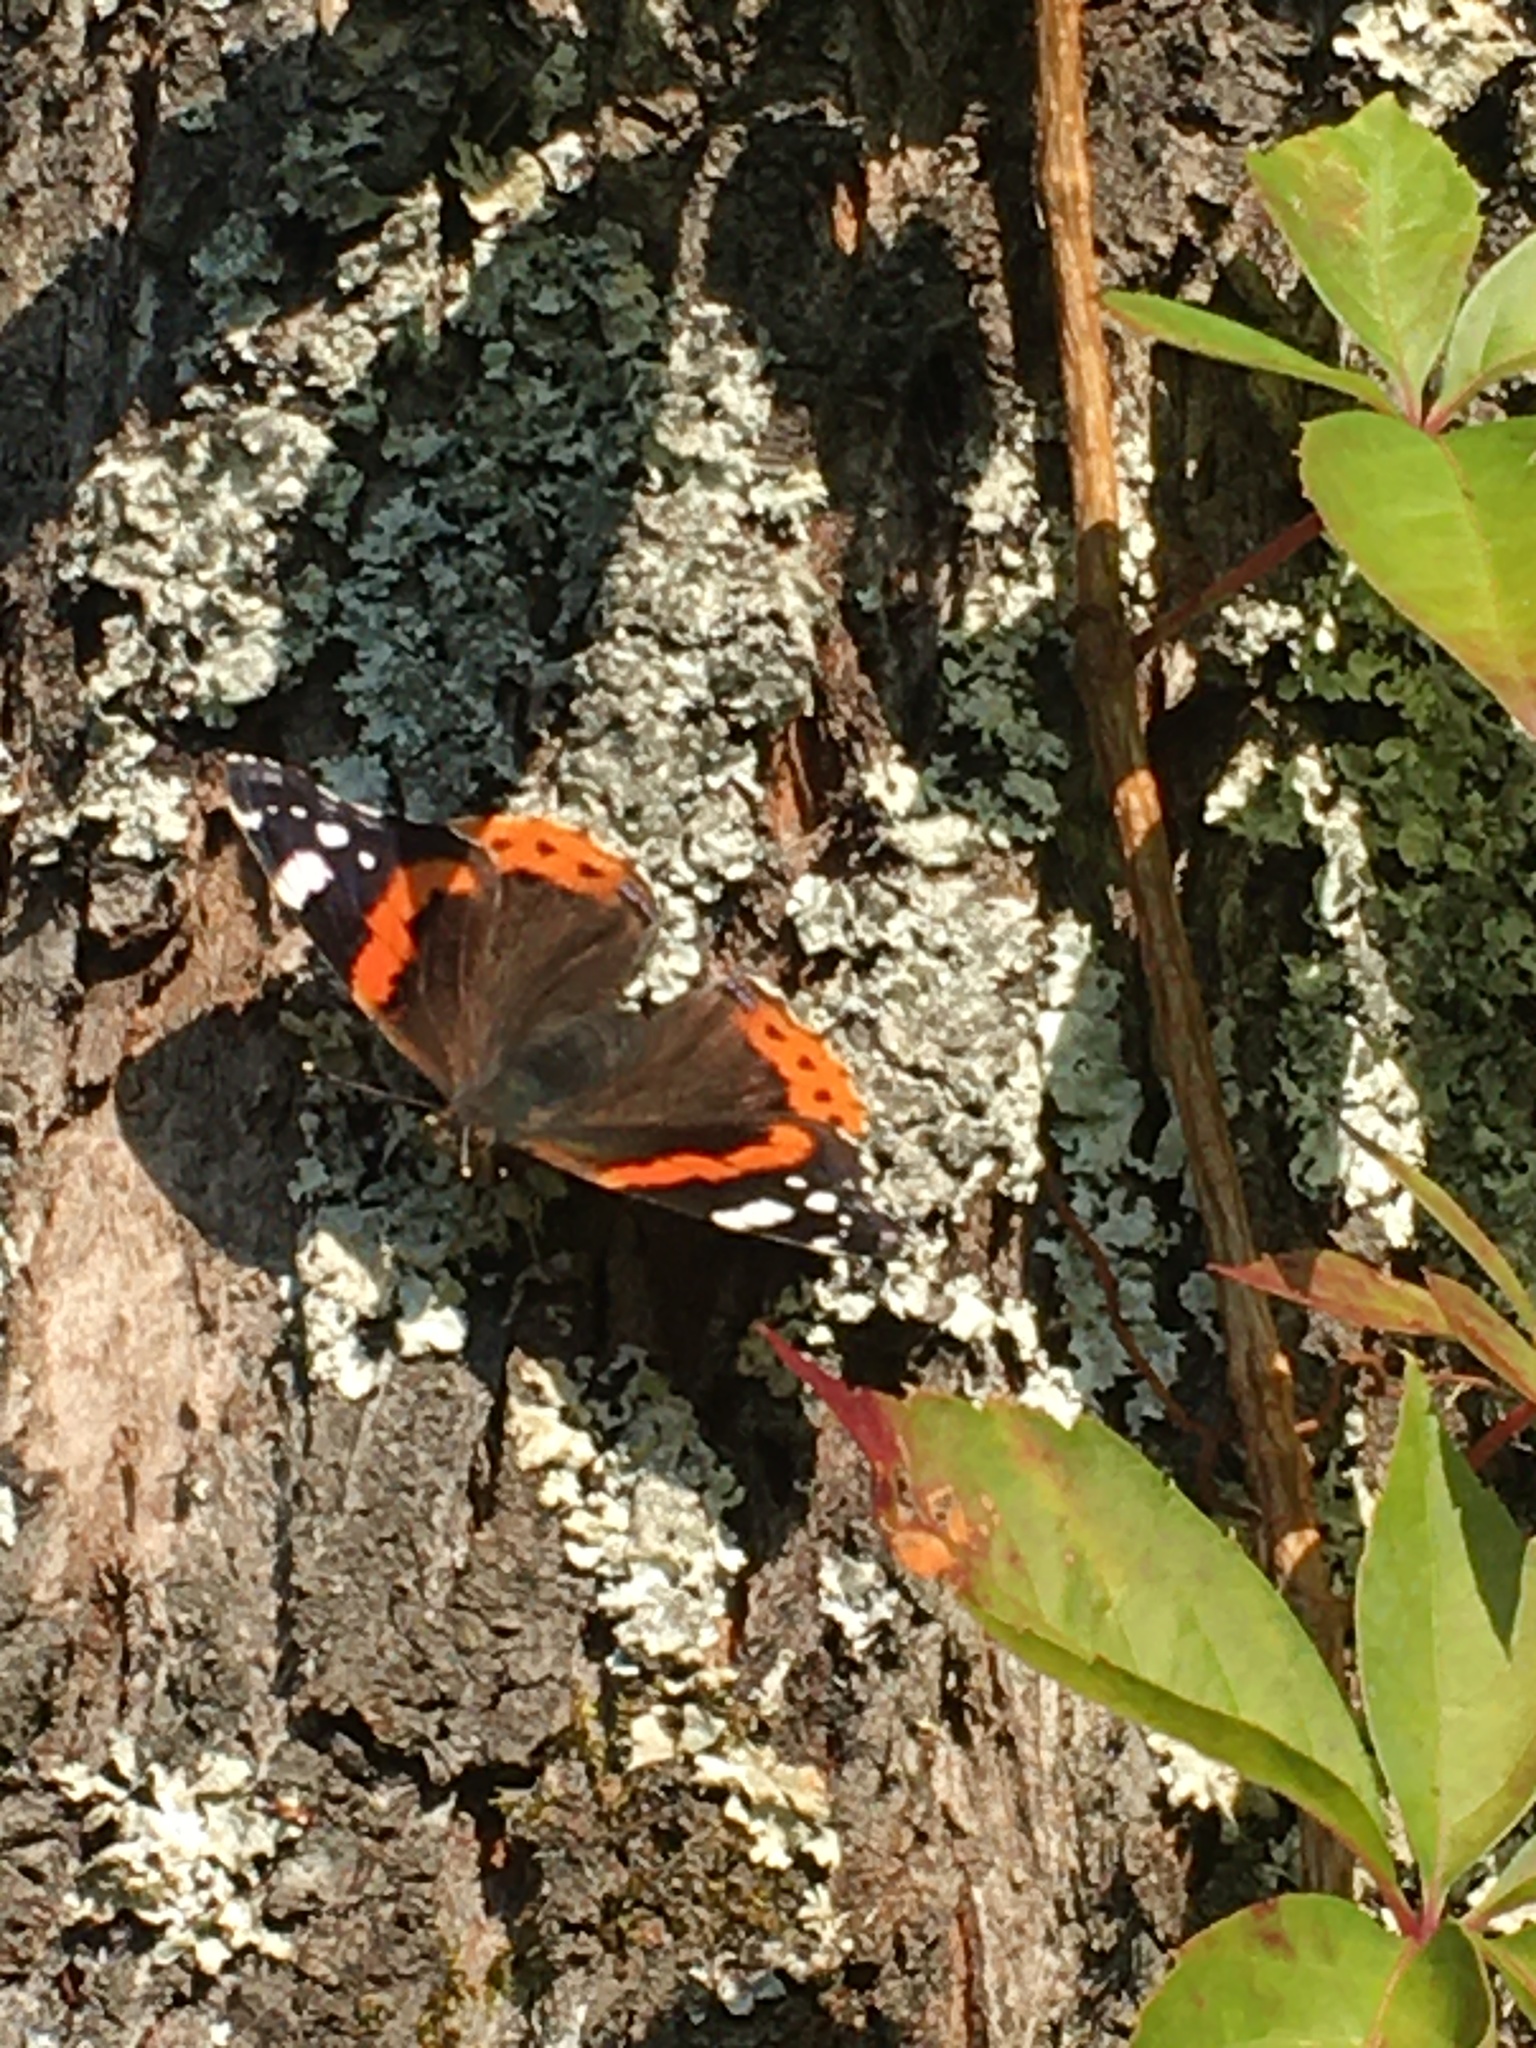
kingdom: Animalia
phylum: Arthropoda
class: Insecta
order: Lepidoptera
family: Nymphalidae
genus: Vanessa
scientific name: Vanessa atalanta
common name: Red admiral
